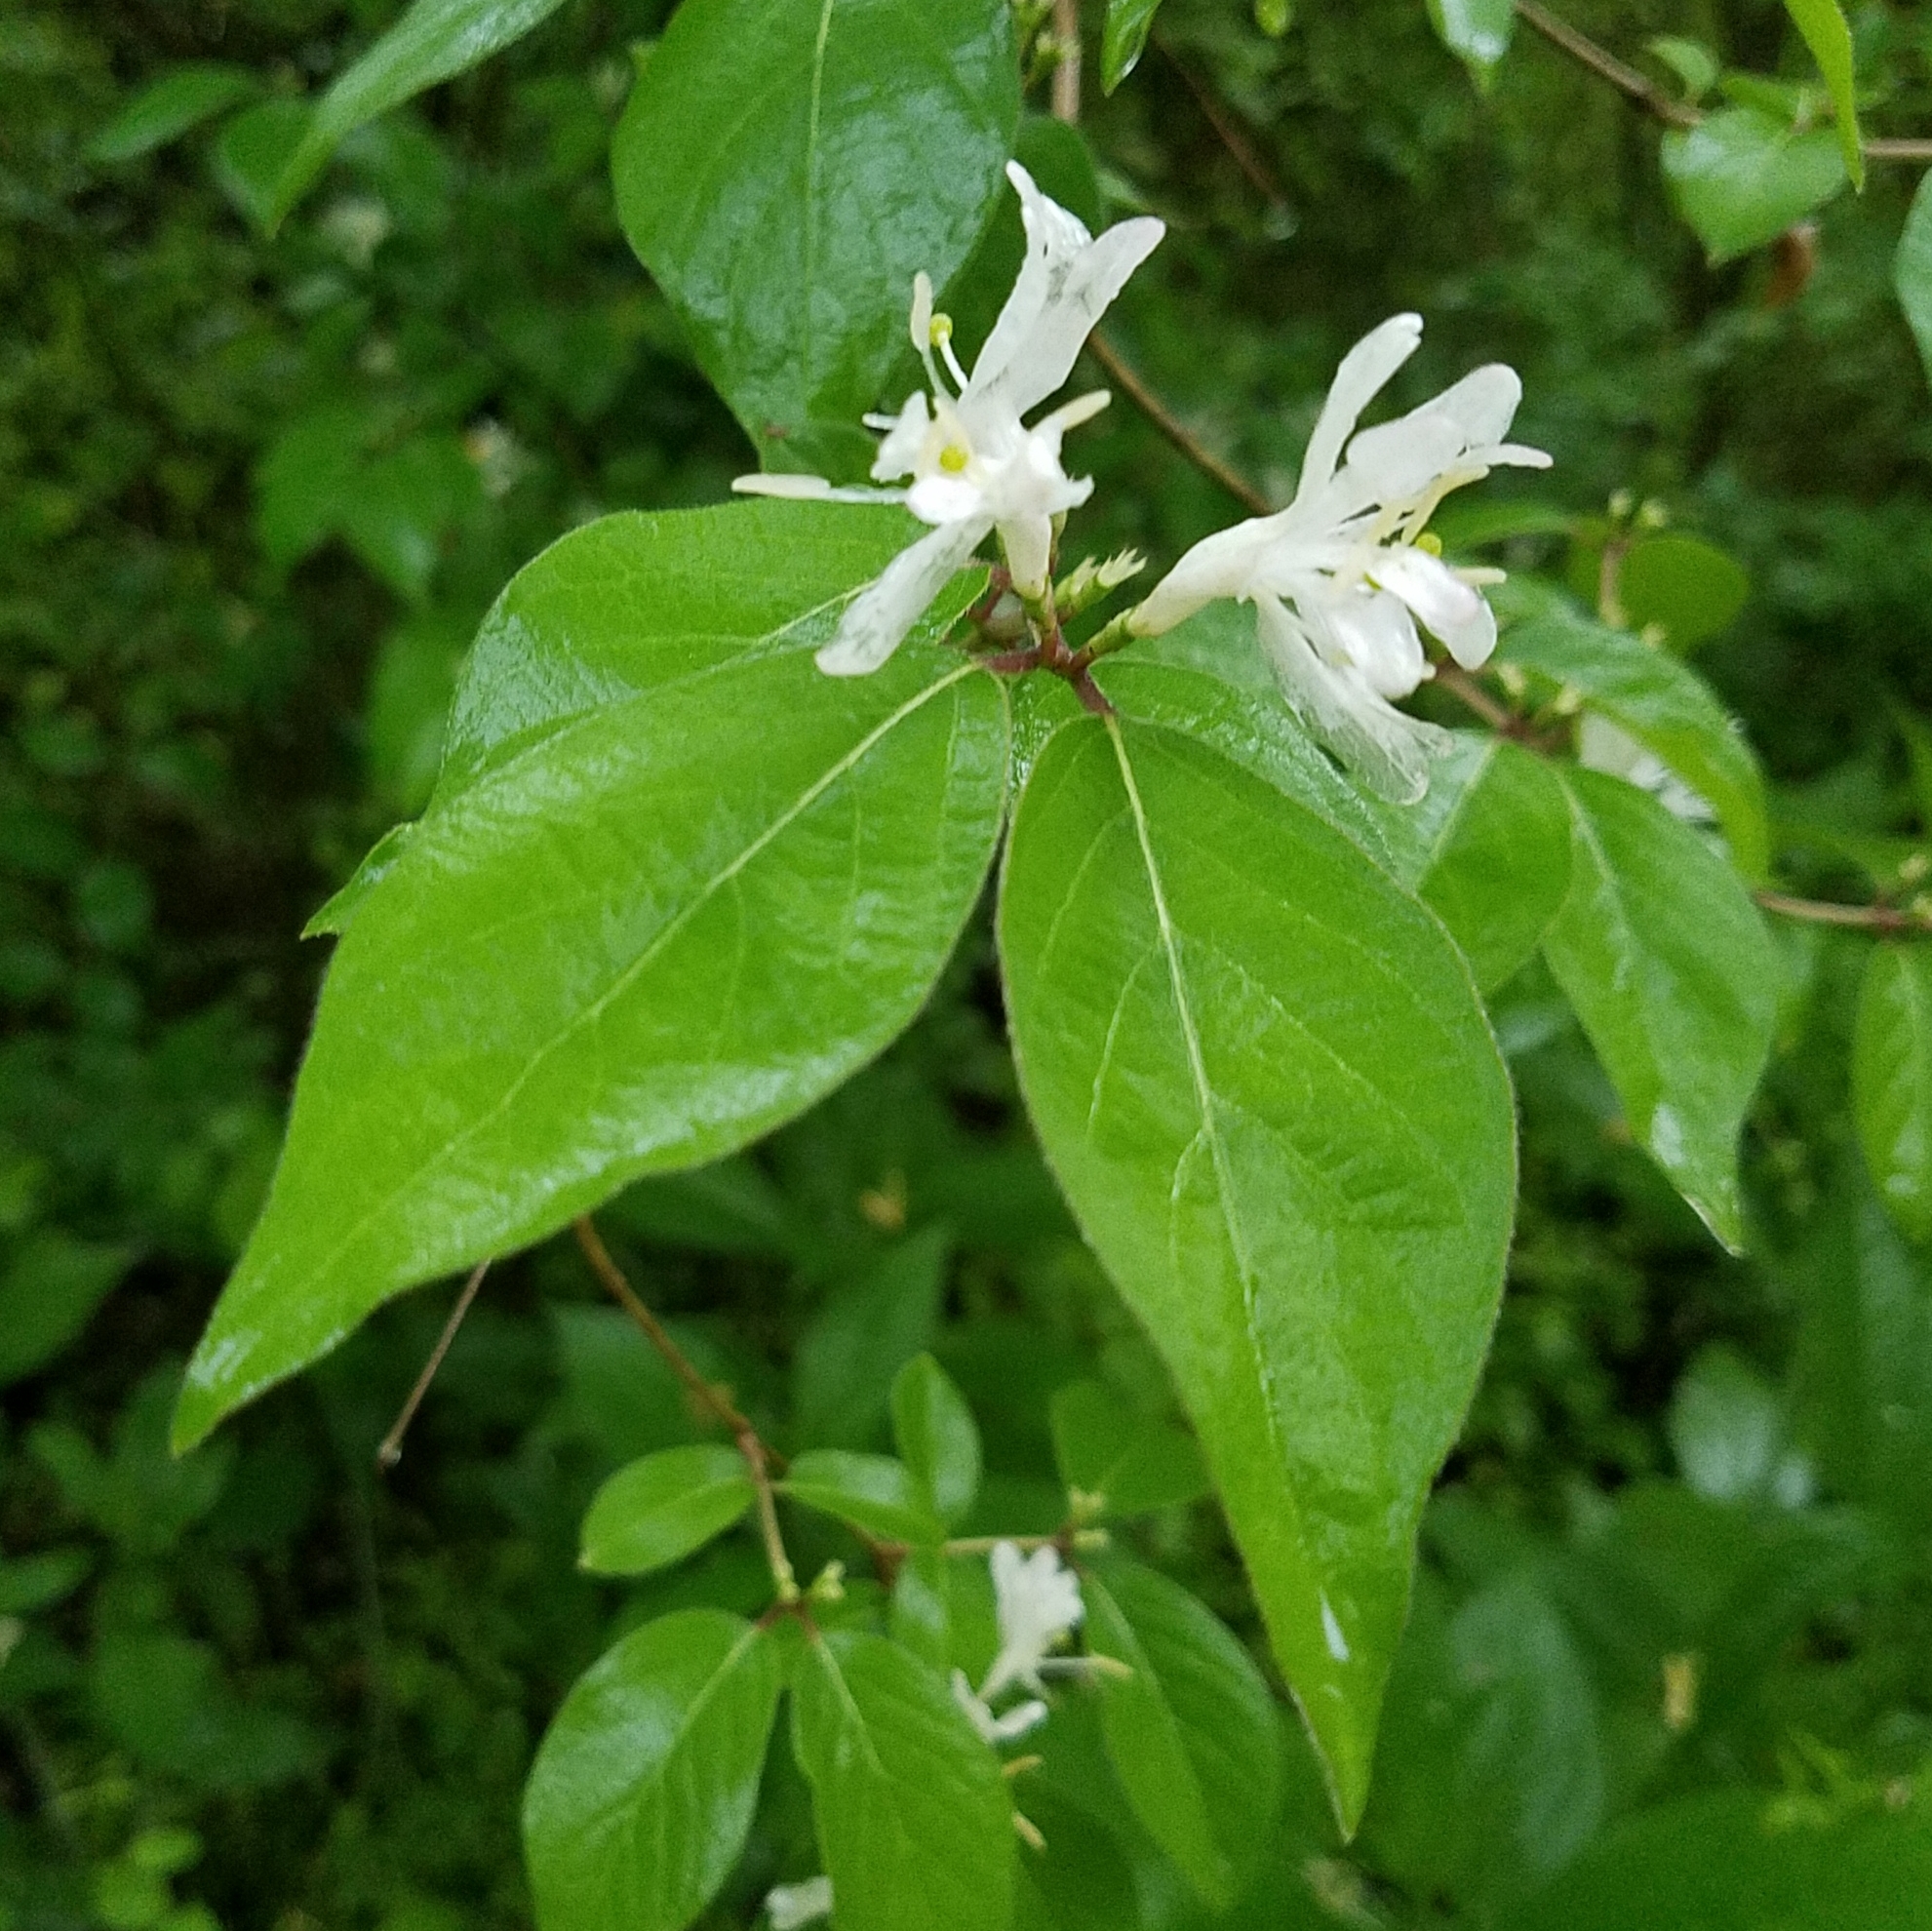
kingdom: Plantae
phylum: Tracheophyta
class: Magnoliopsida
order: Dipsacales
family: Caprifoliaceae
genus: Lonicera
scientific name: Lonicera maackii
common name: Amur honeysuckle
